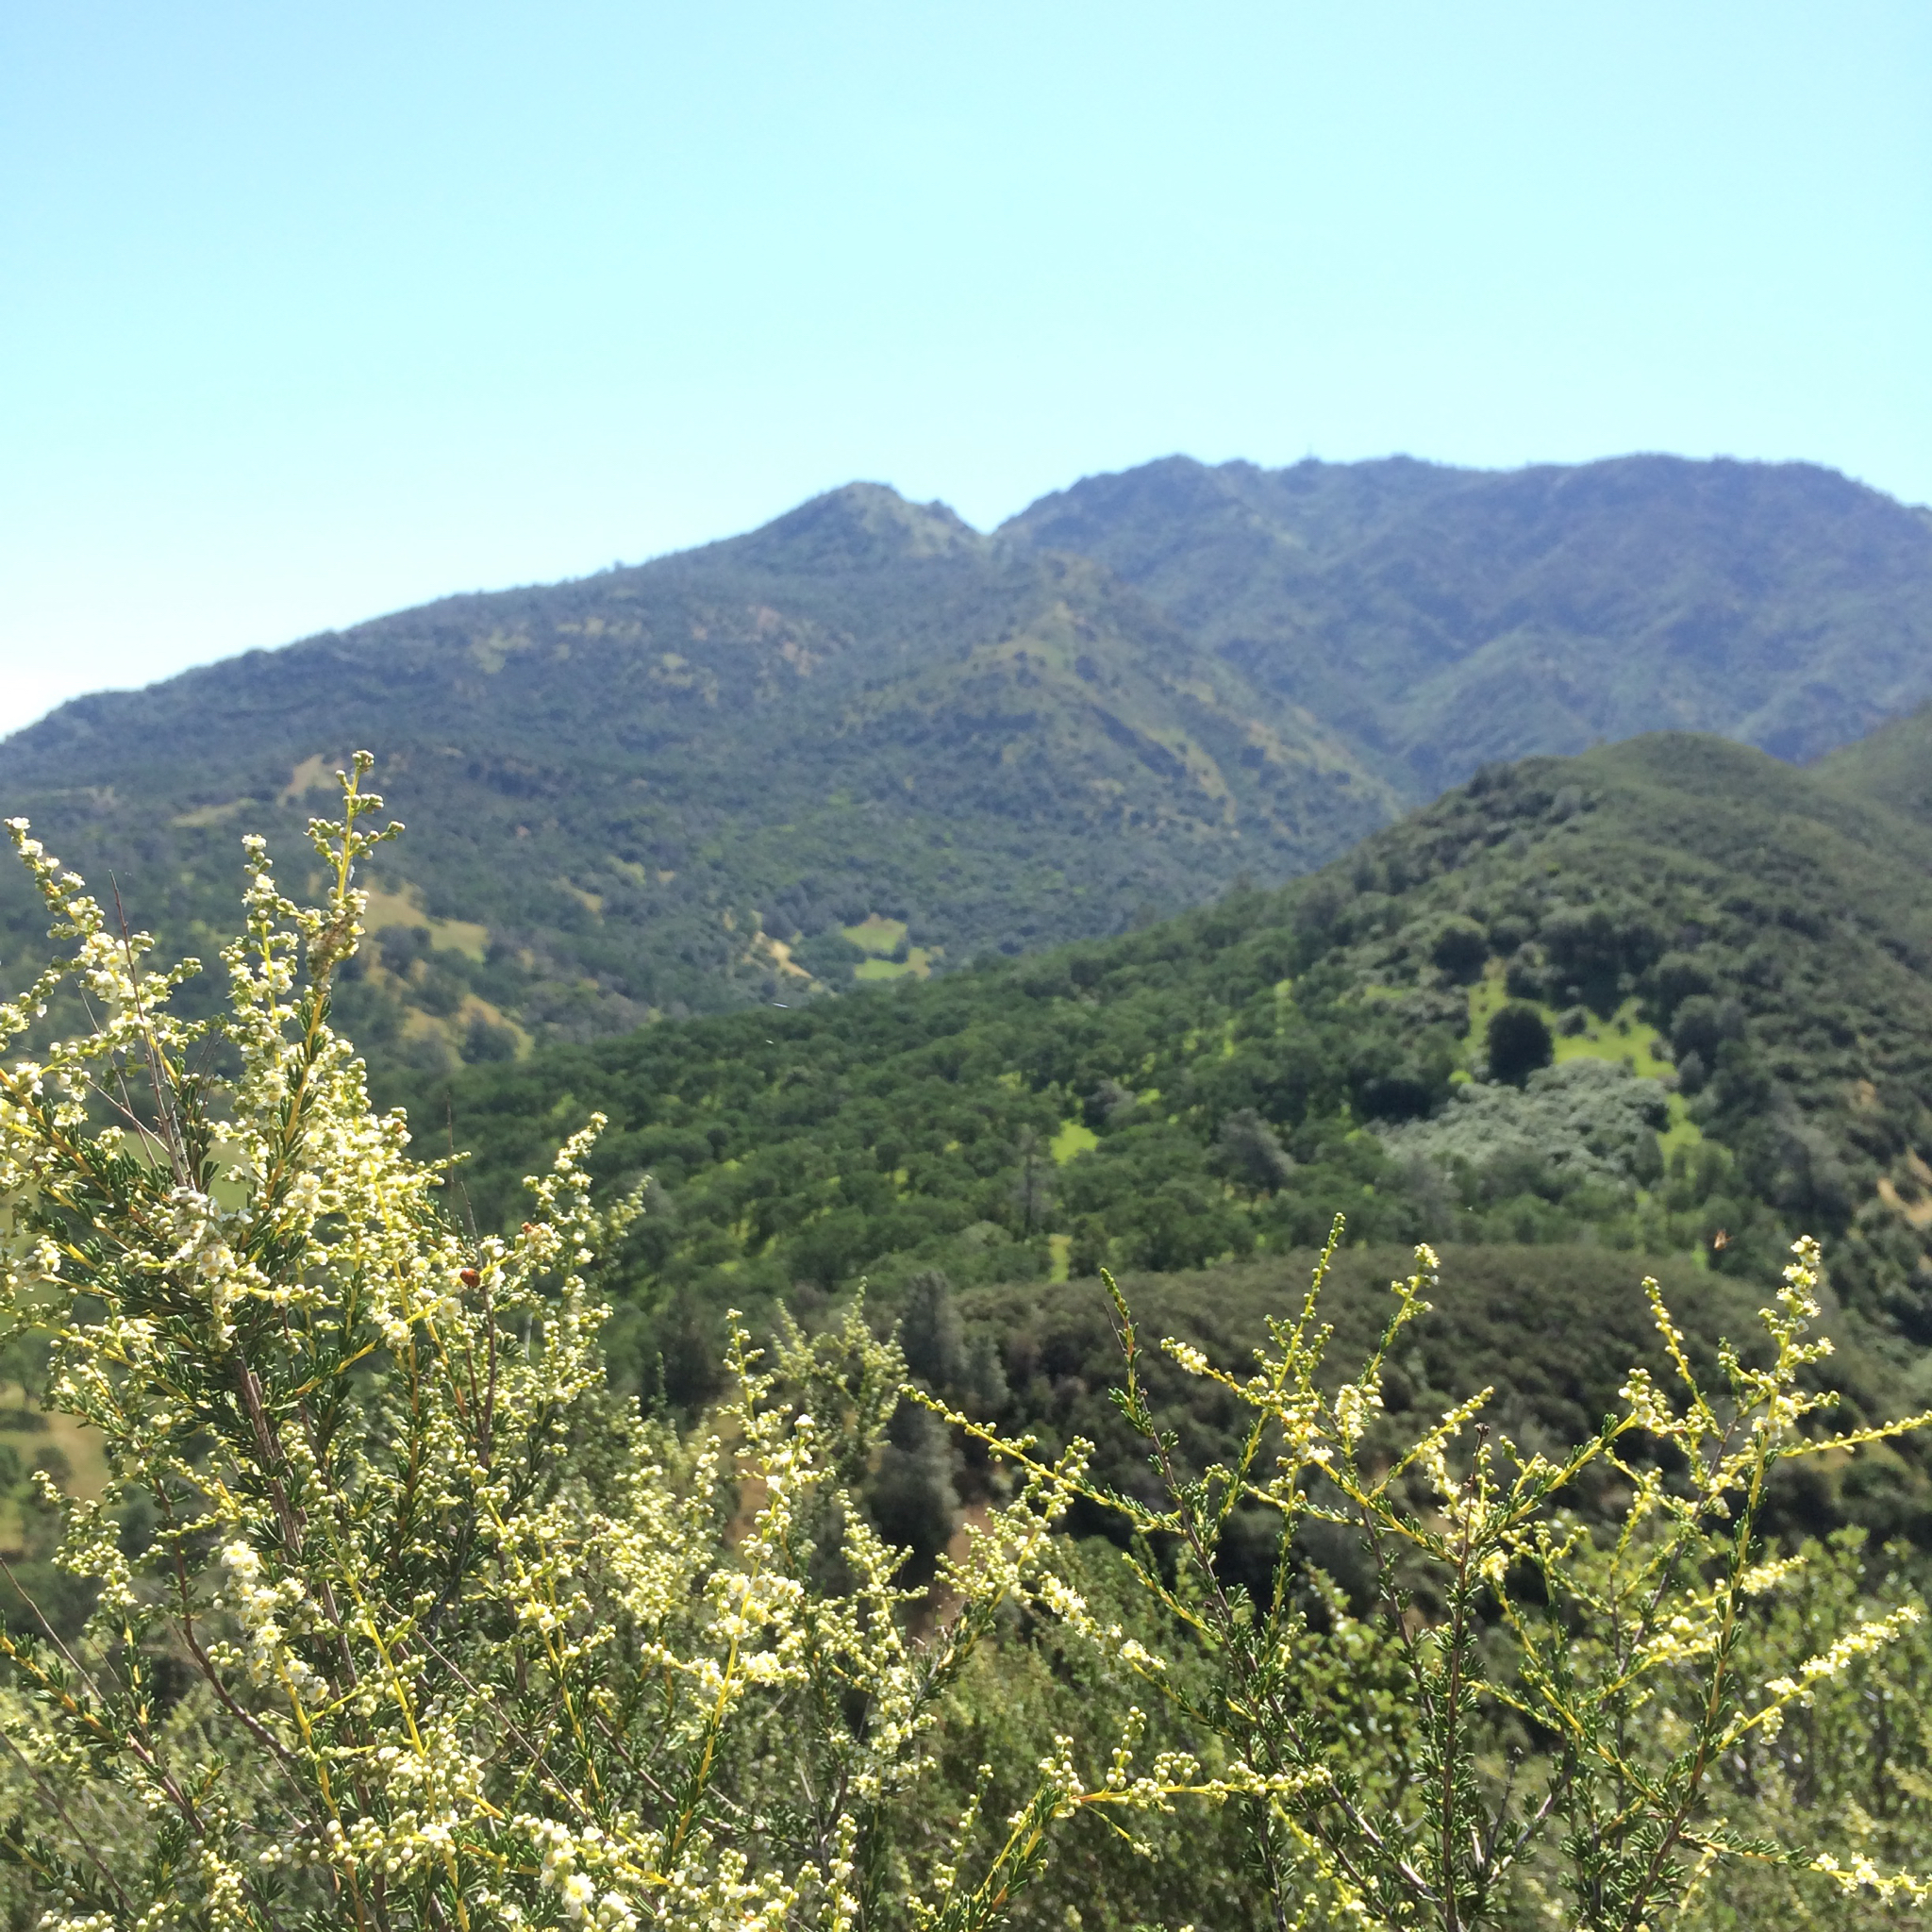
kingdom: Plantae
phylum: Tracheophyta
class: Magnoliopsida
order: Rosales
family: Rosaceae
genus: Adenostoma
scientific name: Adenostoma fasciculatum
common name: Chamise
